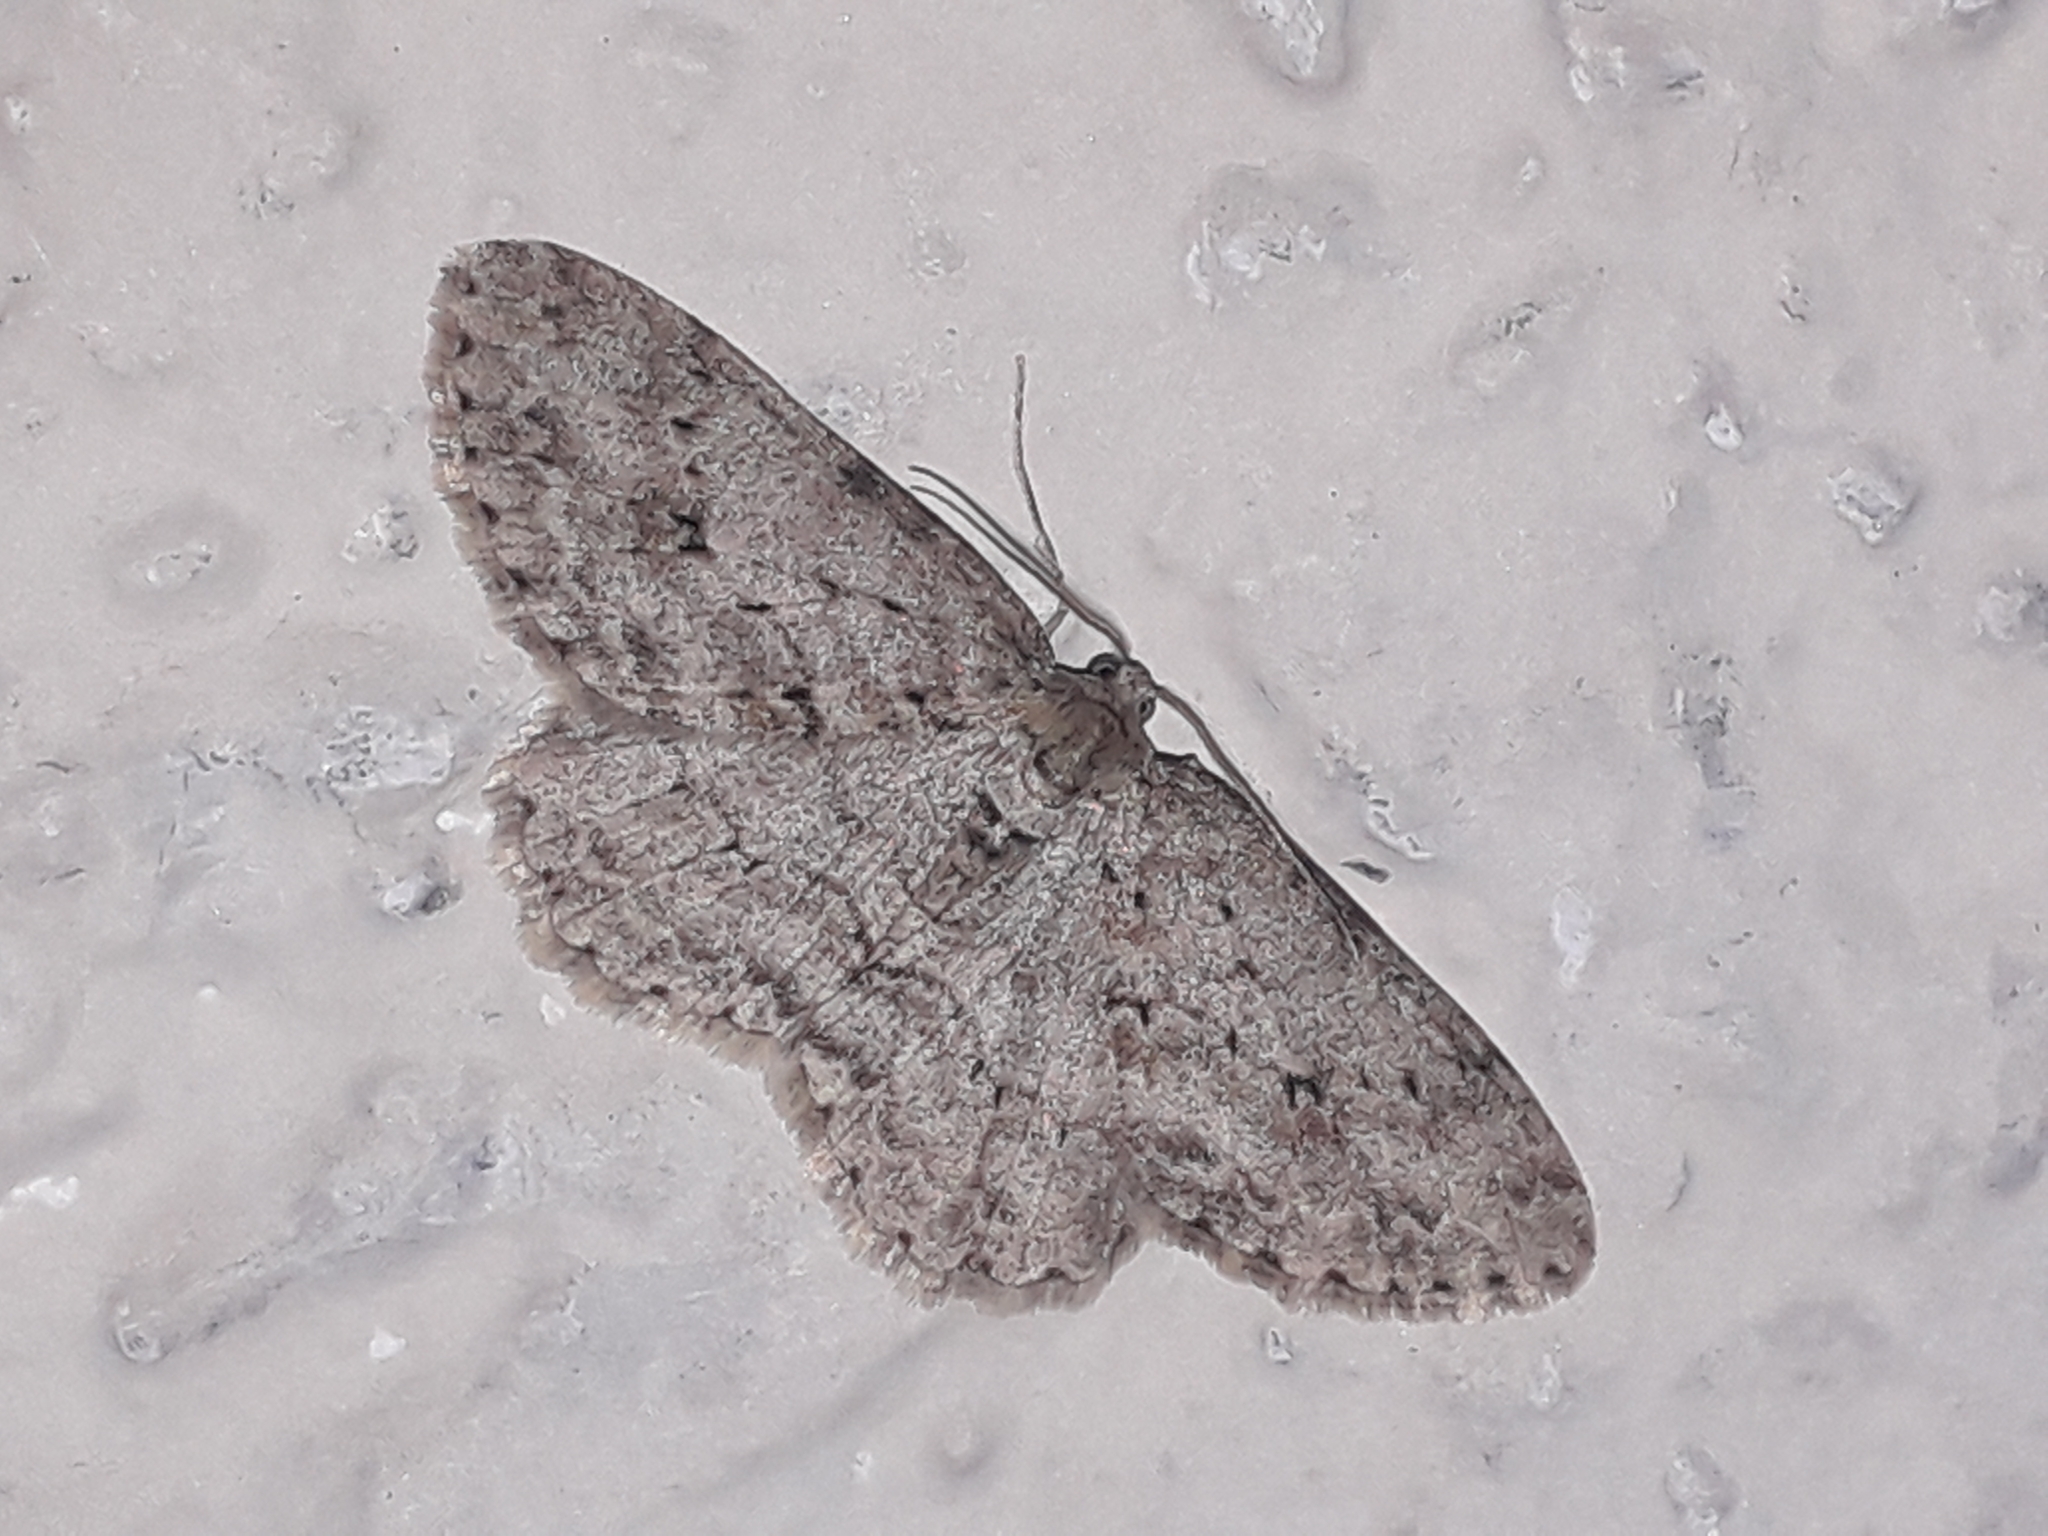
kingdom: Animalia
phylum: Arthropoda
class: Insecta
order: Lepidoptera
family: Geometridae
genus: Ectropis
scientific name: Ectropis crepuscularia
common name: Engrailed
